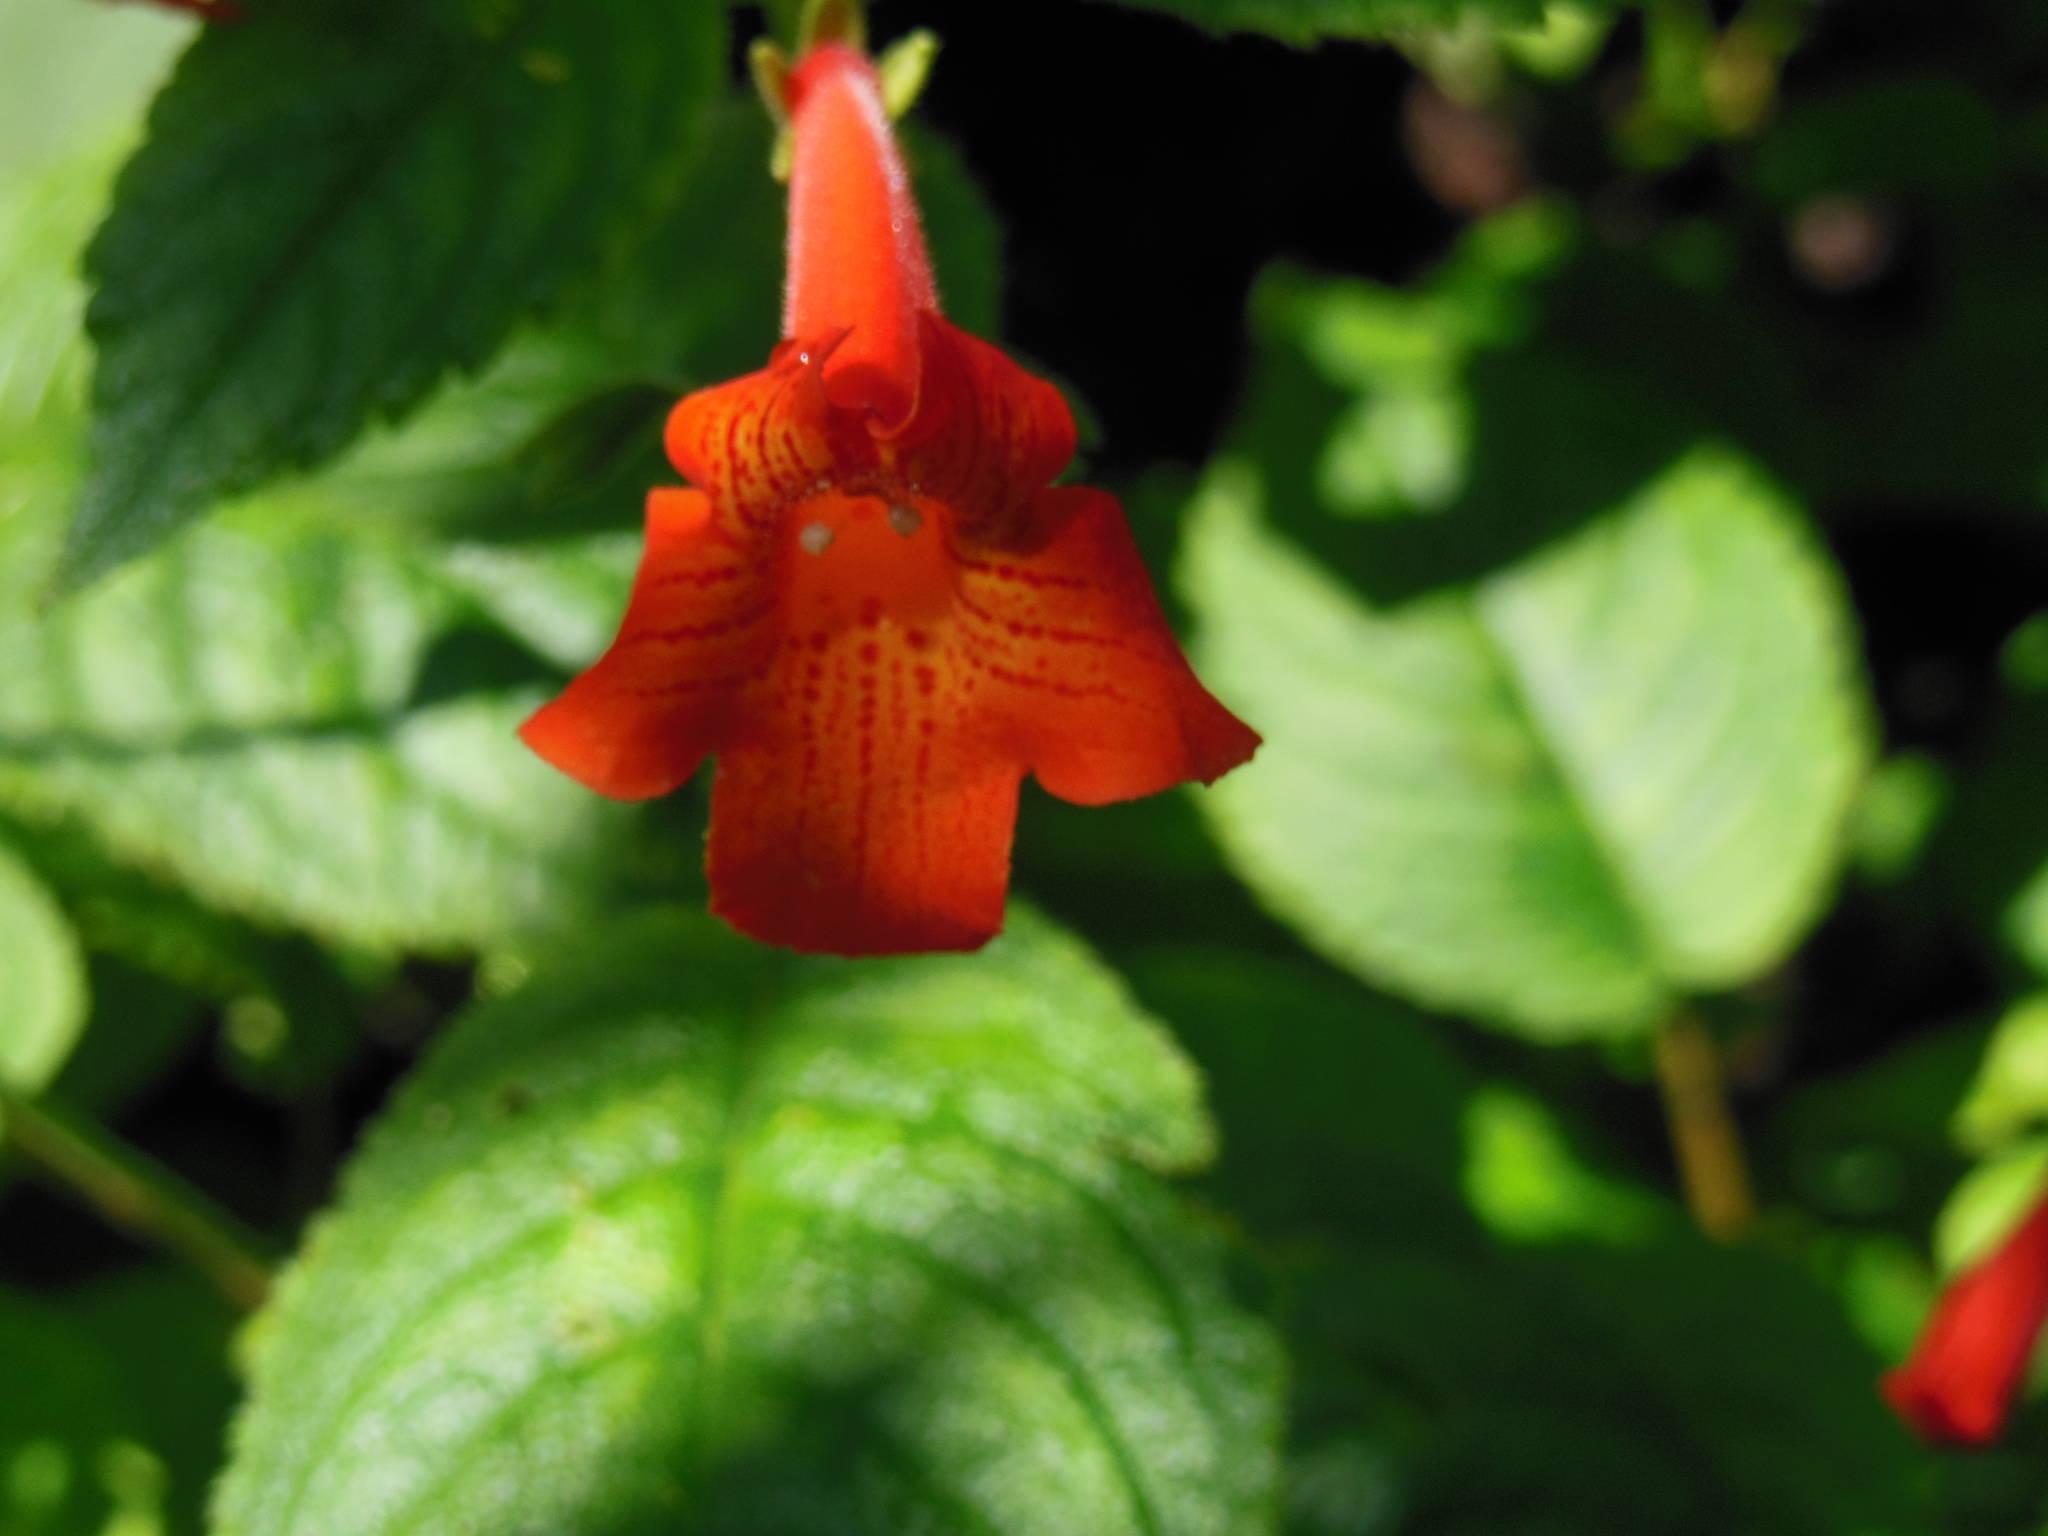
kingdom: Plantae
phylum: Tracheophyta
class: Magnoliopsida
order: Lamiales
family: Gesneriaceae
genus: Achimenes
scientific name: Achimenes pedunculata
